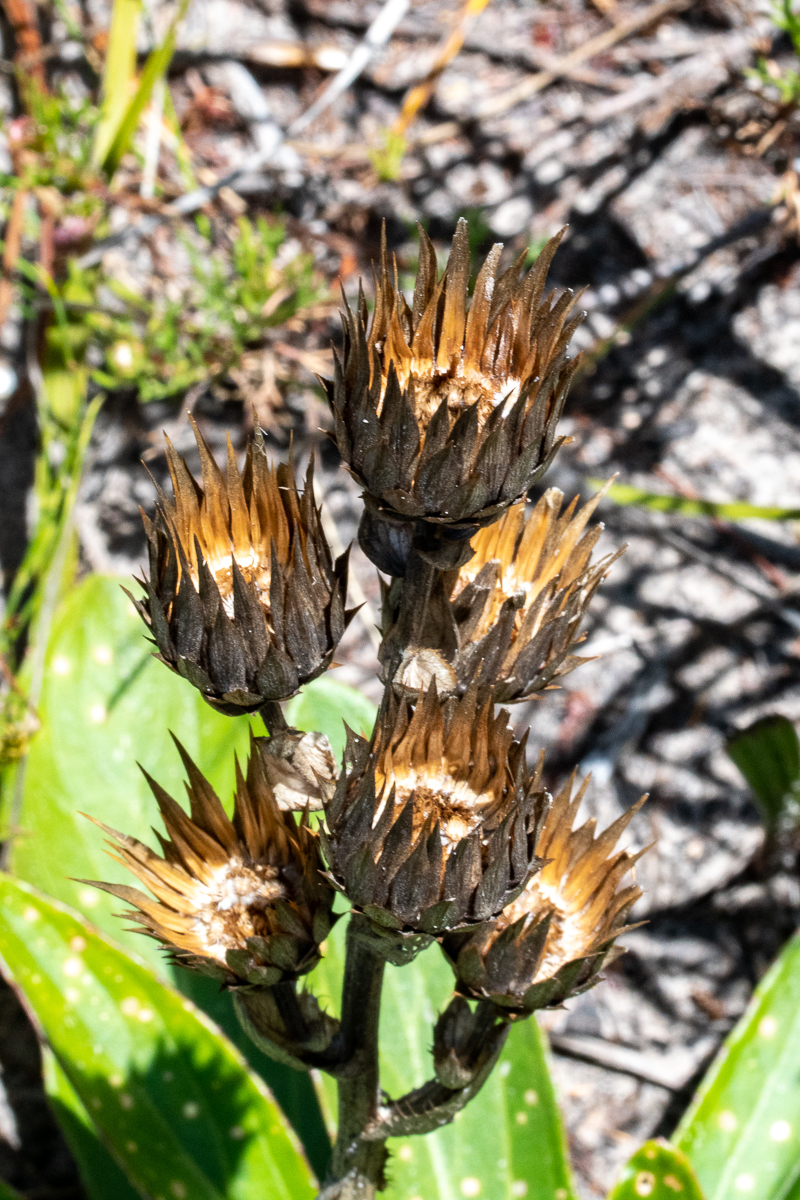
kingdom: Plantae
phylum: Tracheophyta
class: Magnoliopsida
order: Asterales
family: Asteraceae
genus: Berkheya
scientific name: Berkheya herbacea
